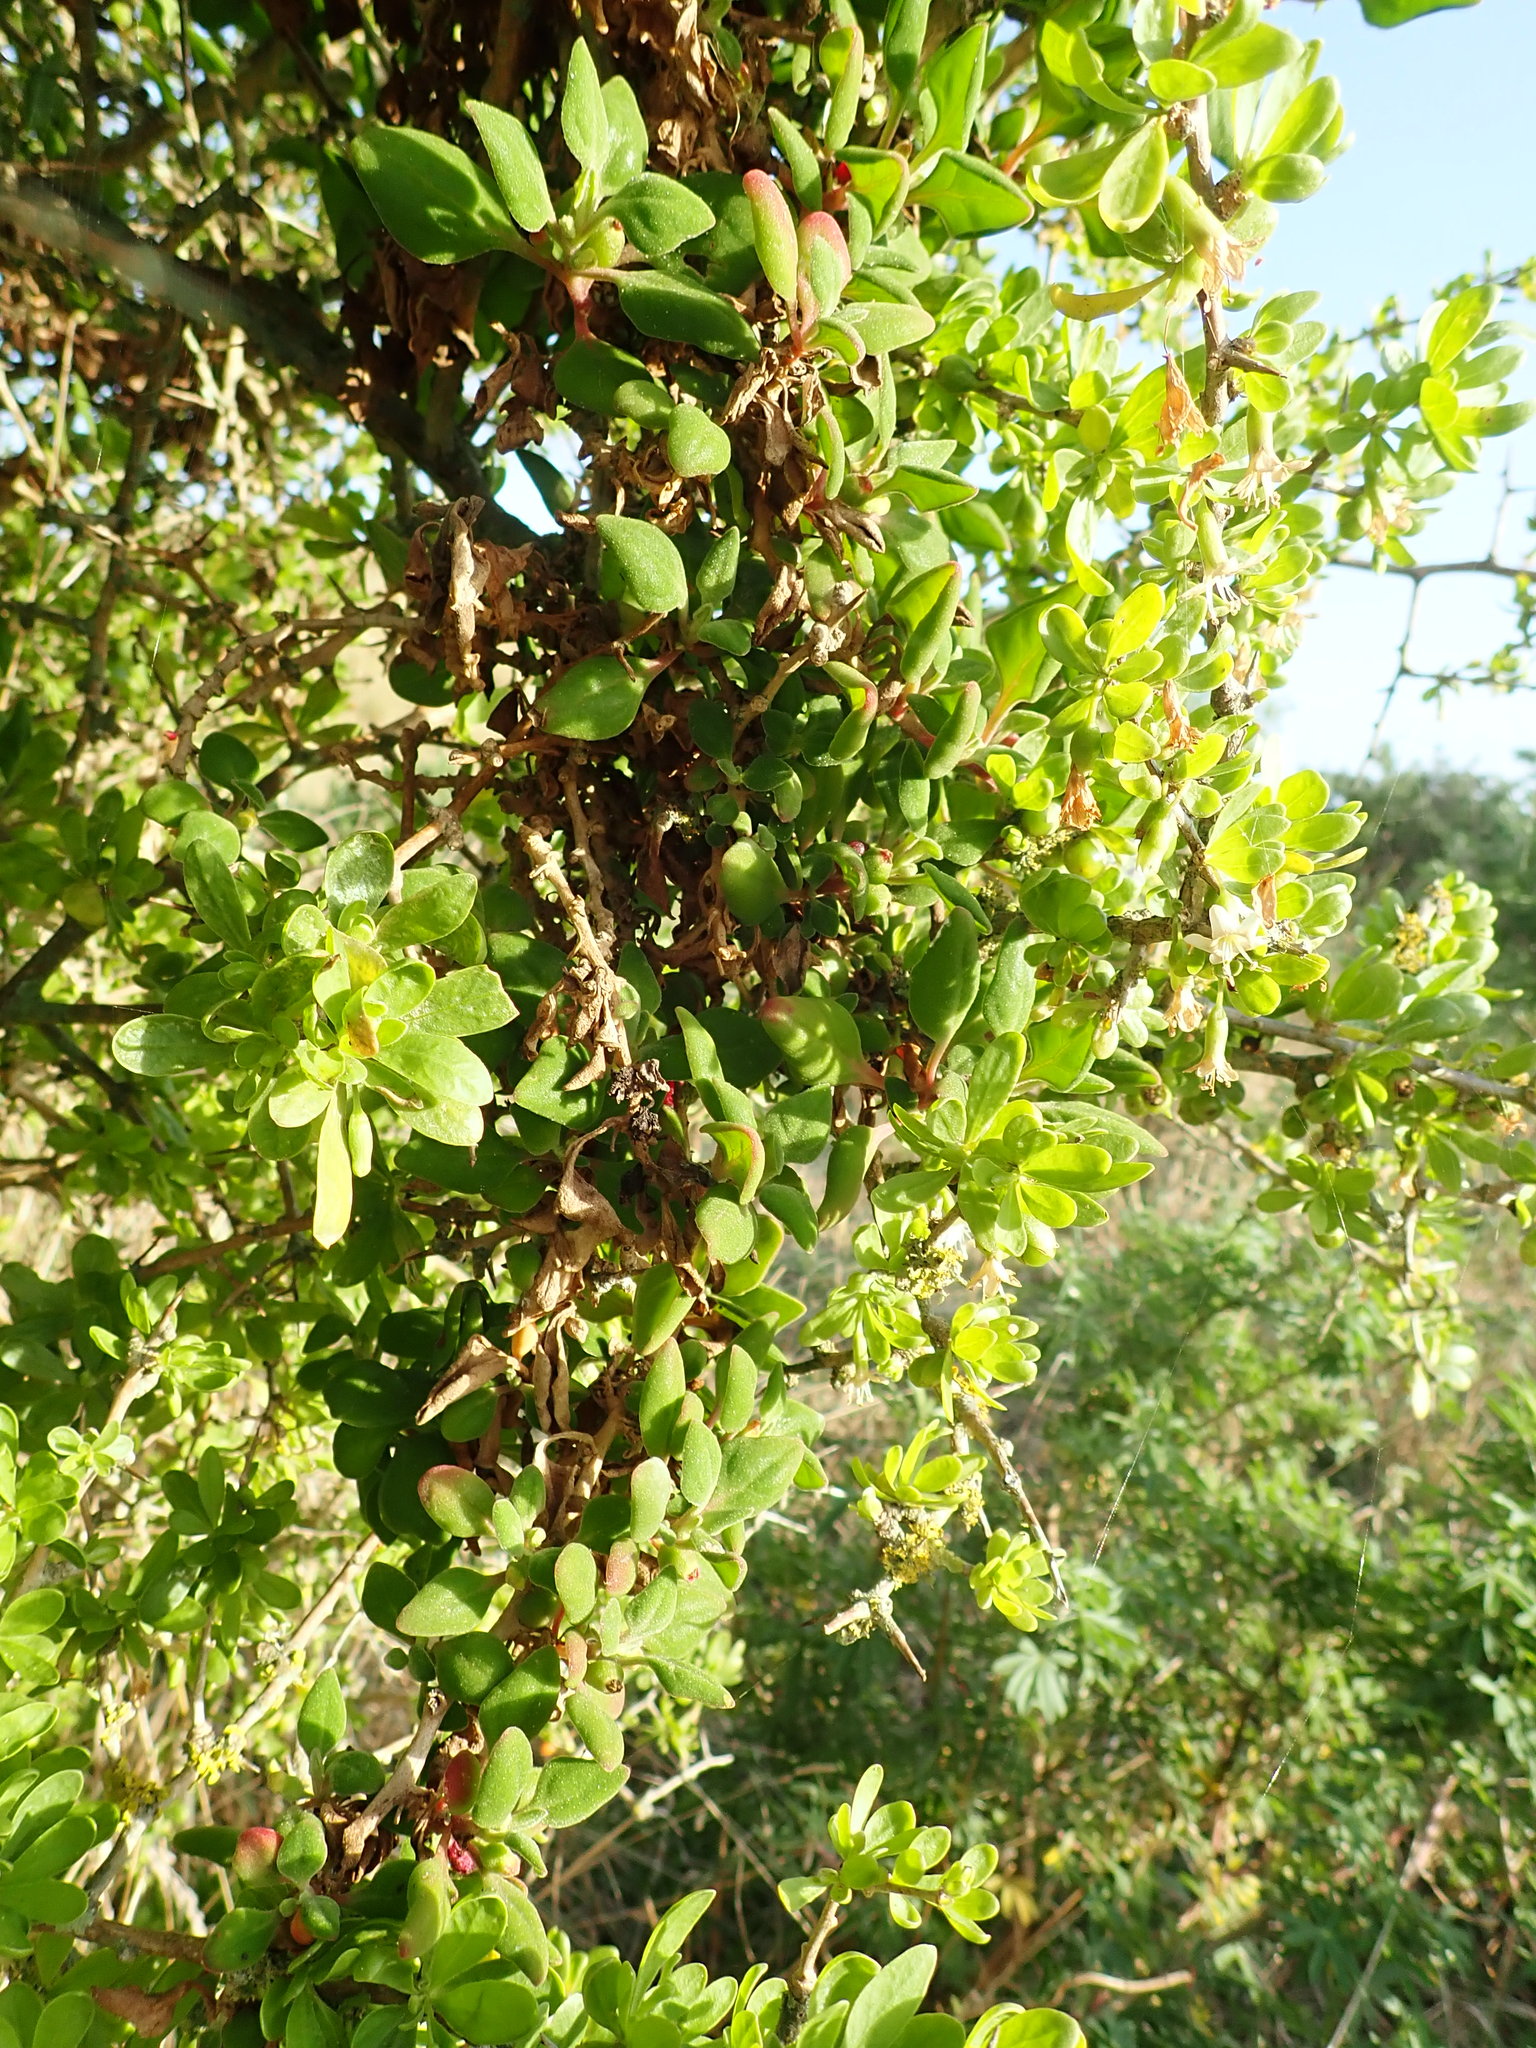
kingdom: Plantae
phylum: Tracheophyta
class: Magnoliopsida
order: Caryophyllales
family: Aizoaceae
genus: Tetragonia
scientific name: Tetragonia implexicoma
